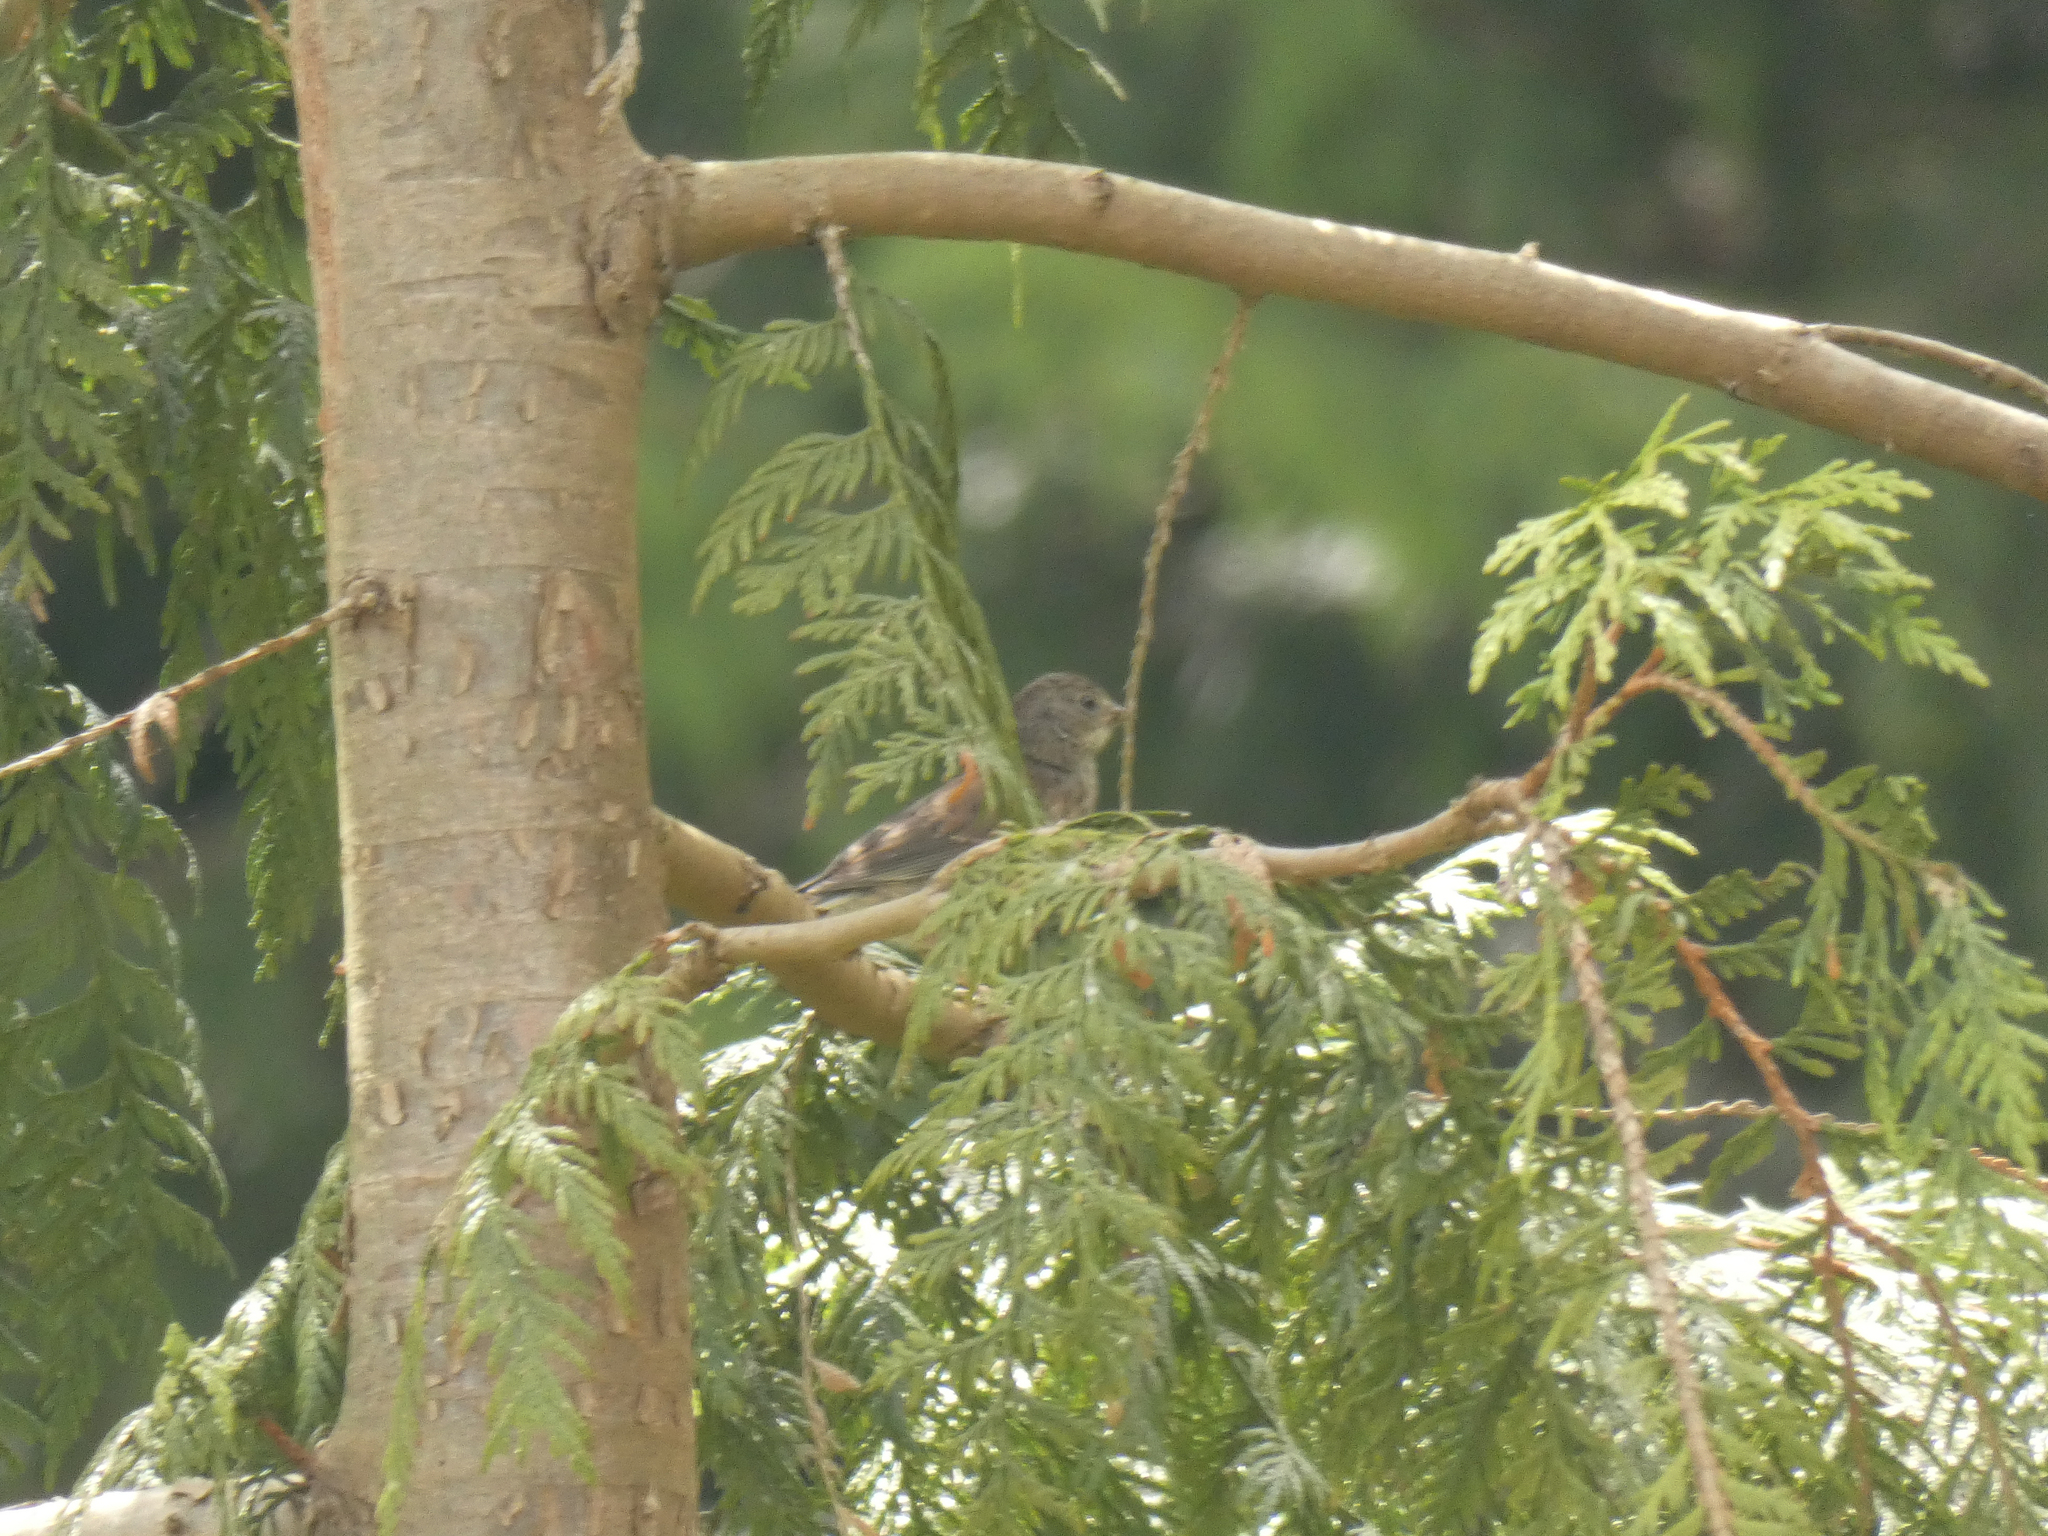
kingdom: Animalia
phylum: Chordata
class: Aves
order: Passeriformes
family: Passerellidae
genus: Junco
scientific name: Junco hyemalis
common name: Dark-eyed junco
